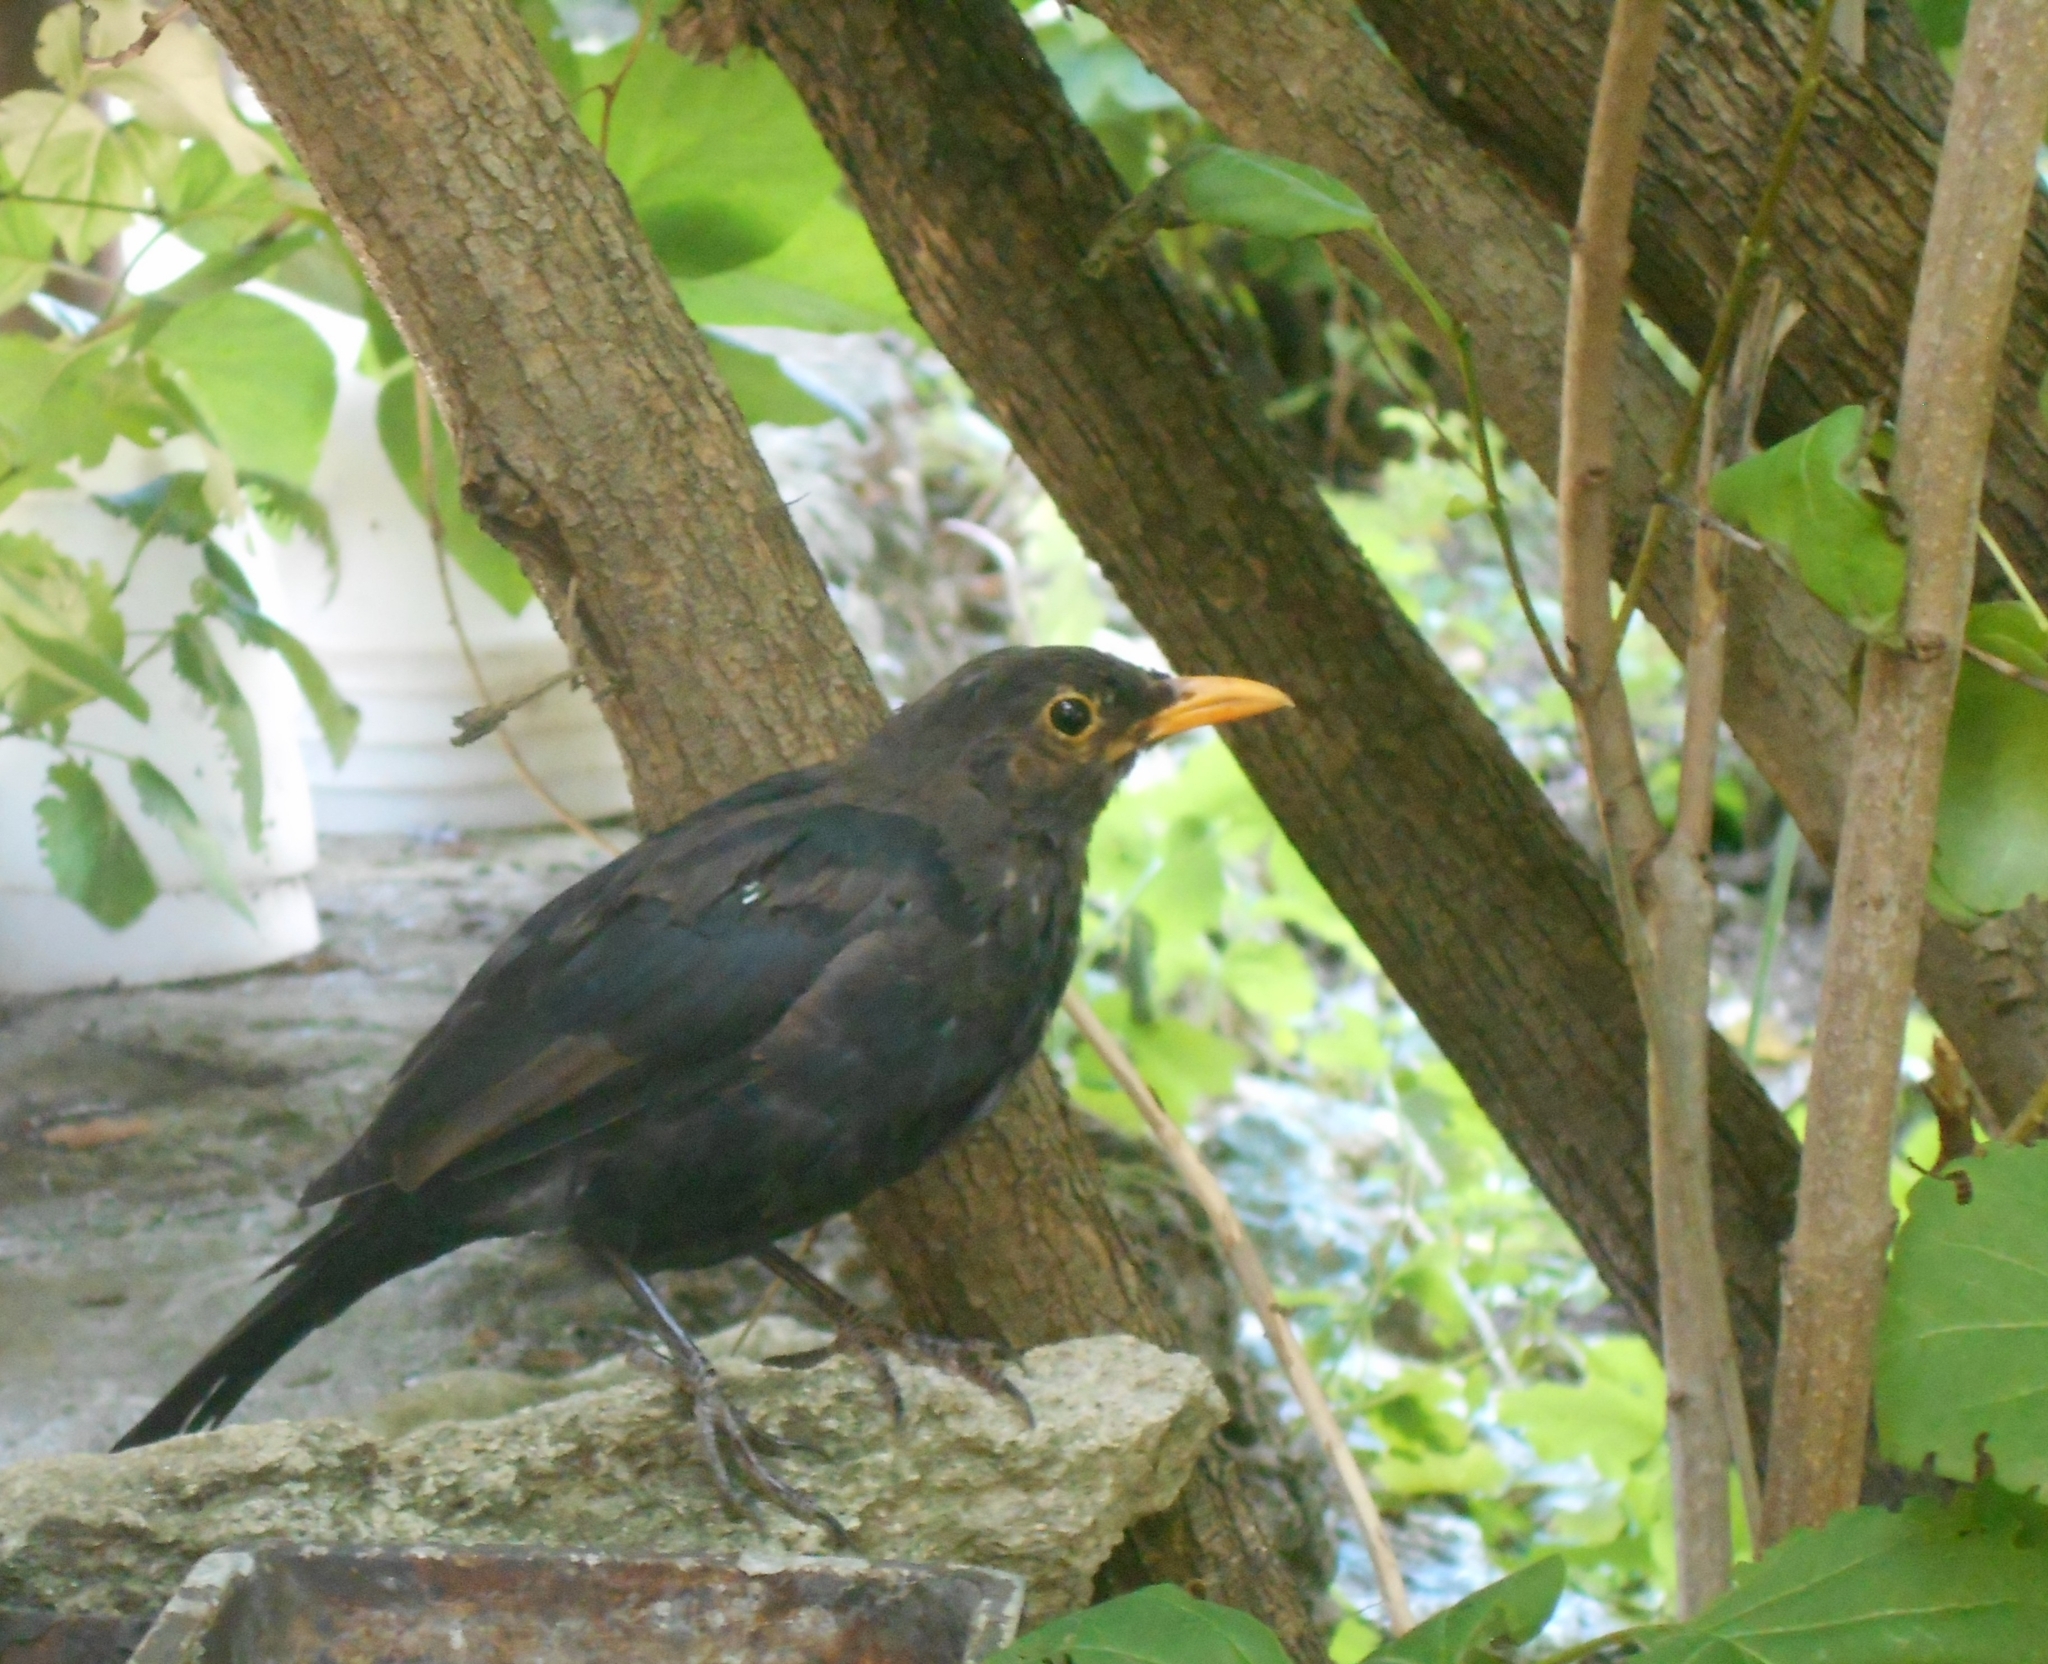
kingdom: Animalia
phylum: Chordata
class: Aves
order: Passeriformes
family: Turdidae
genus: Turdus
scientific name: Turdus merula
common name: Common blackbird
